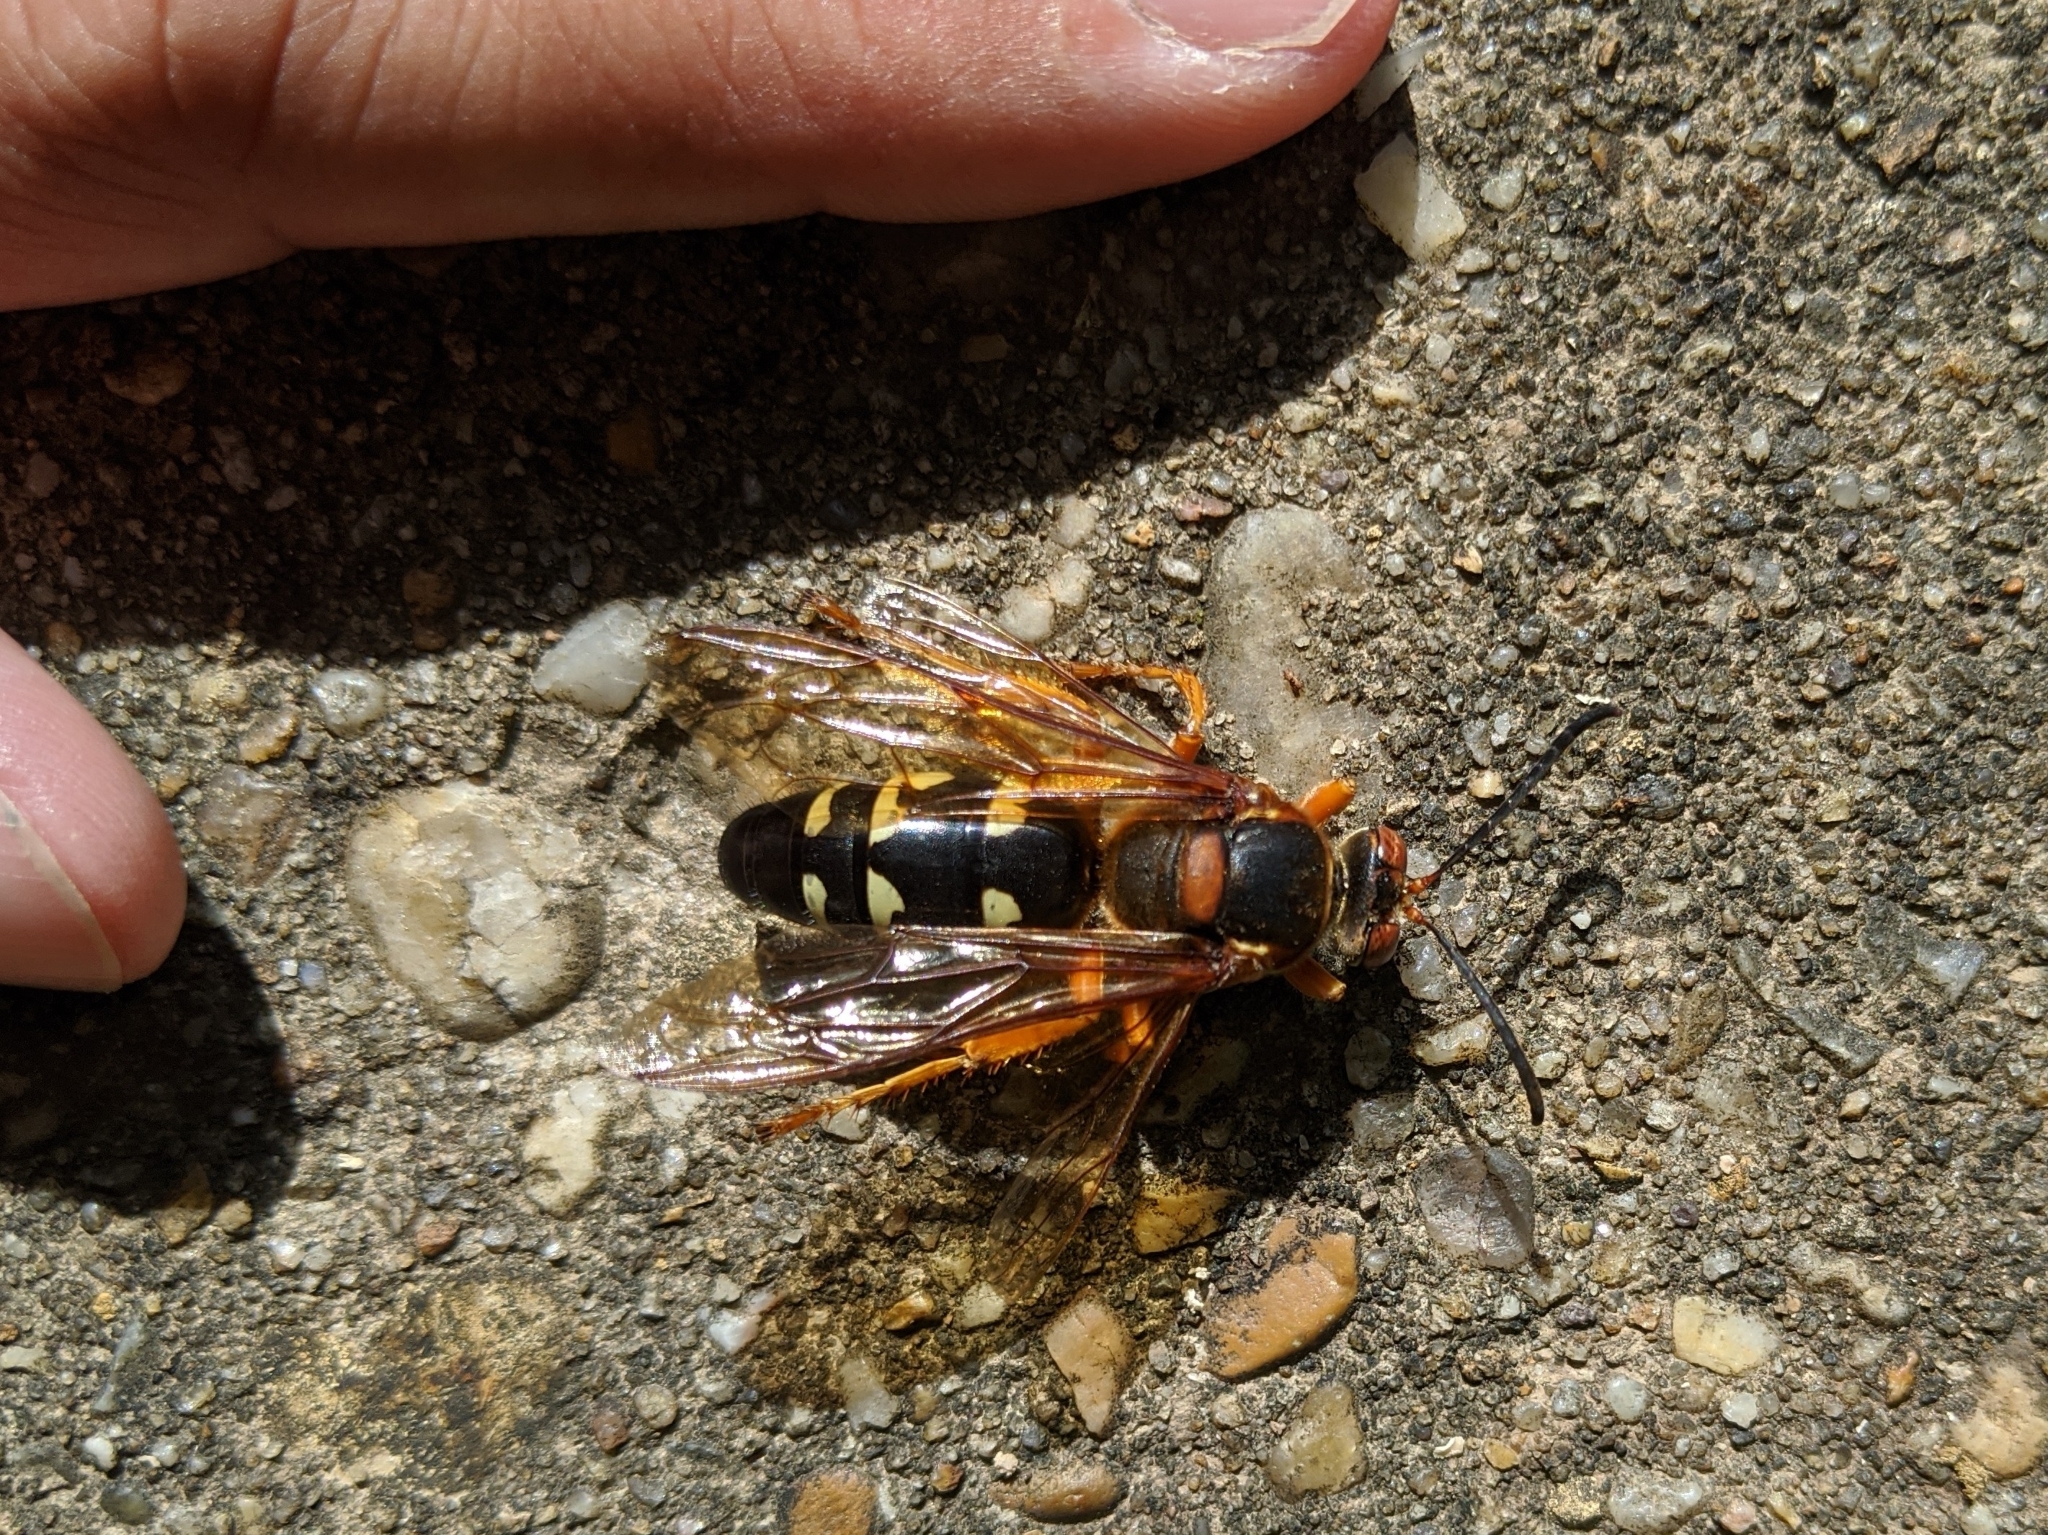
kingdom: Animalia
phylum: Arthropoda
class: Insecta
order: Hymenoptera
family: Crabronidae
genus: Sphecius
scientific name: Sphecius speciosus
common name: Cicada killer
